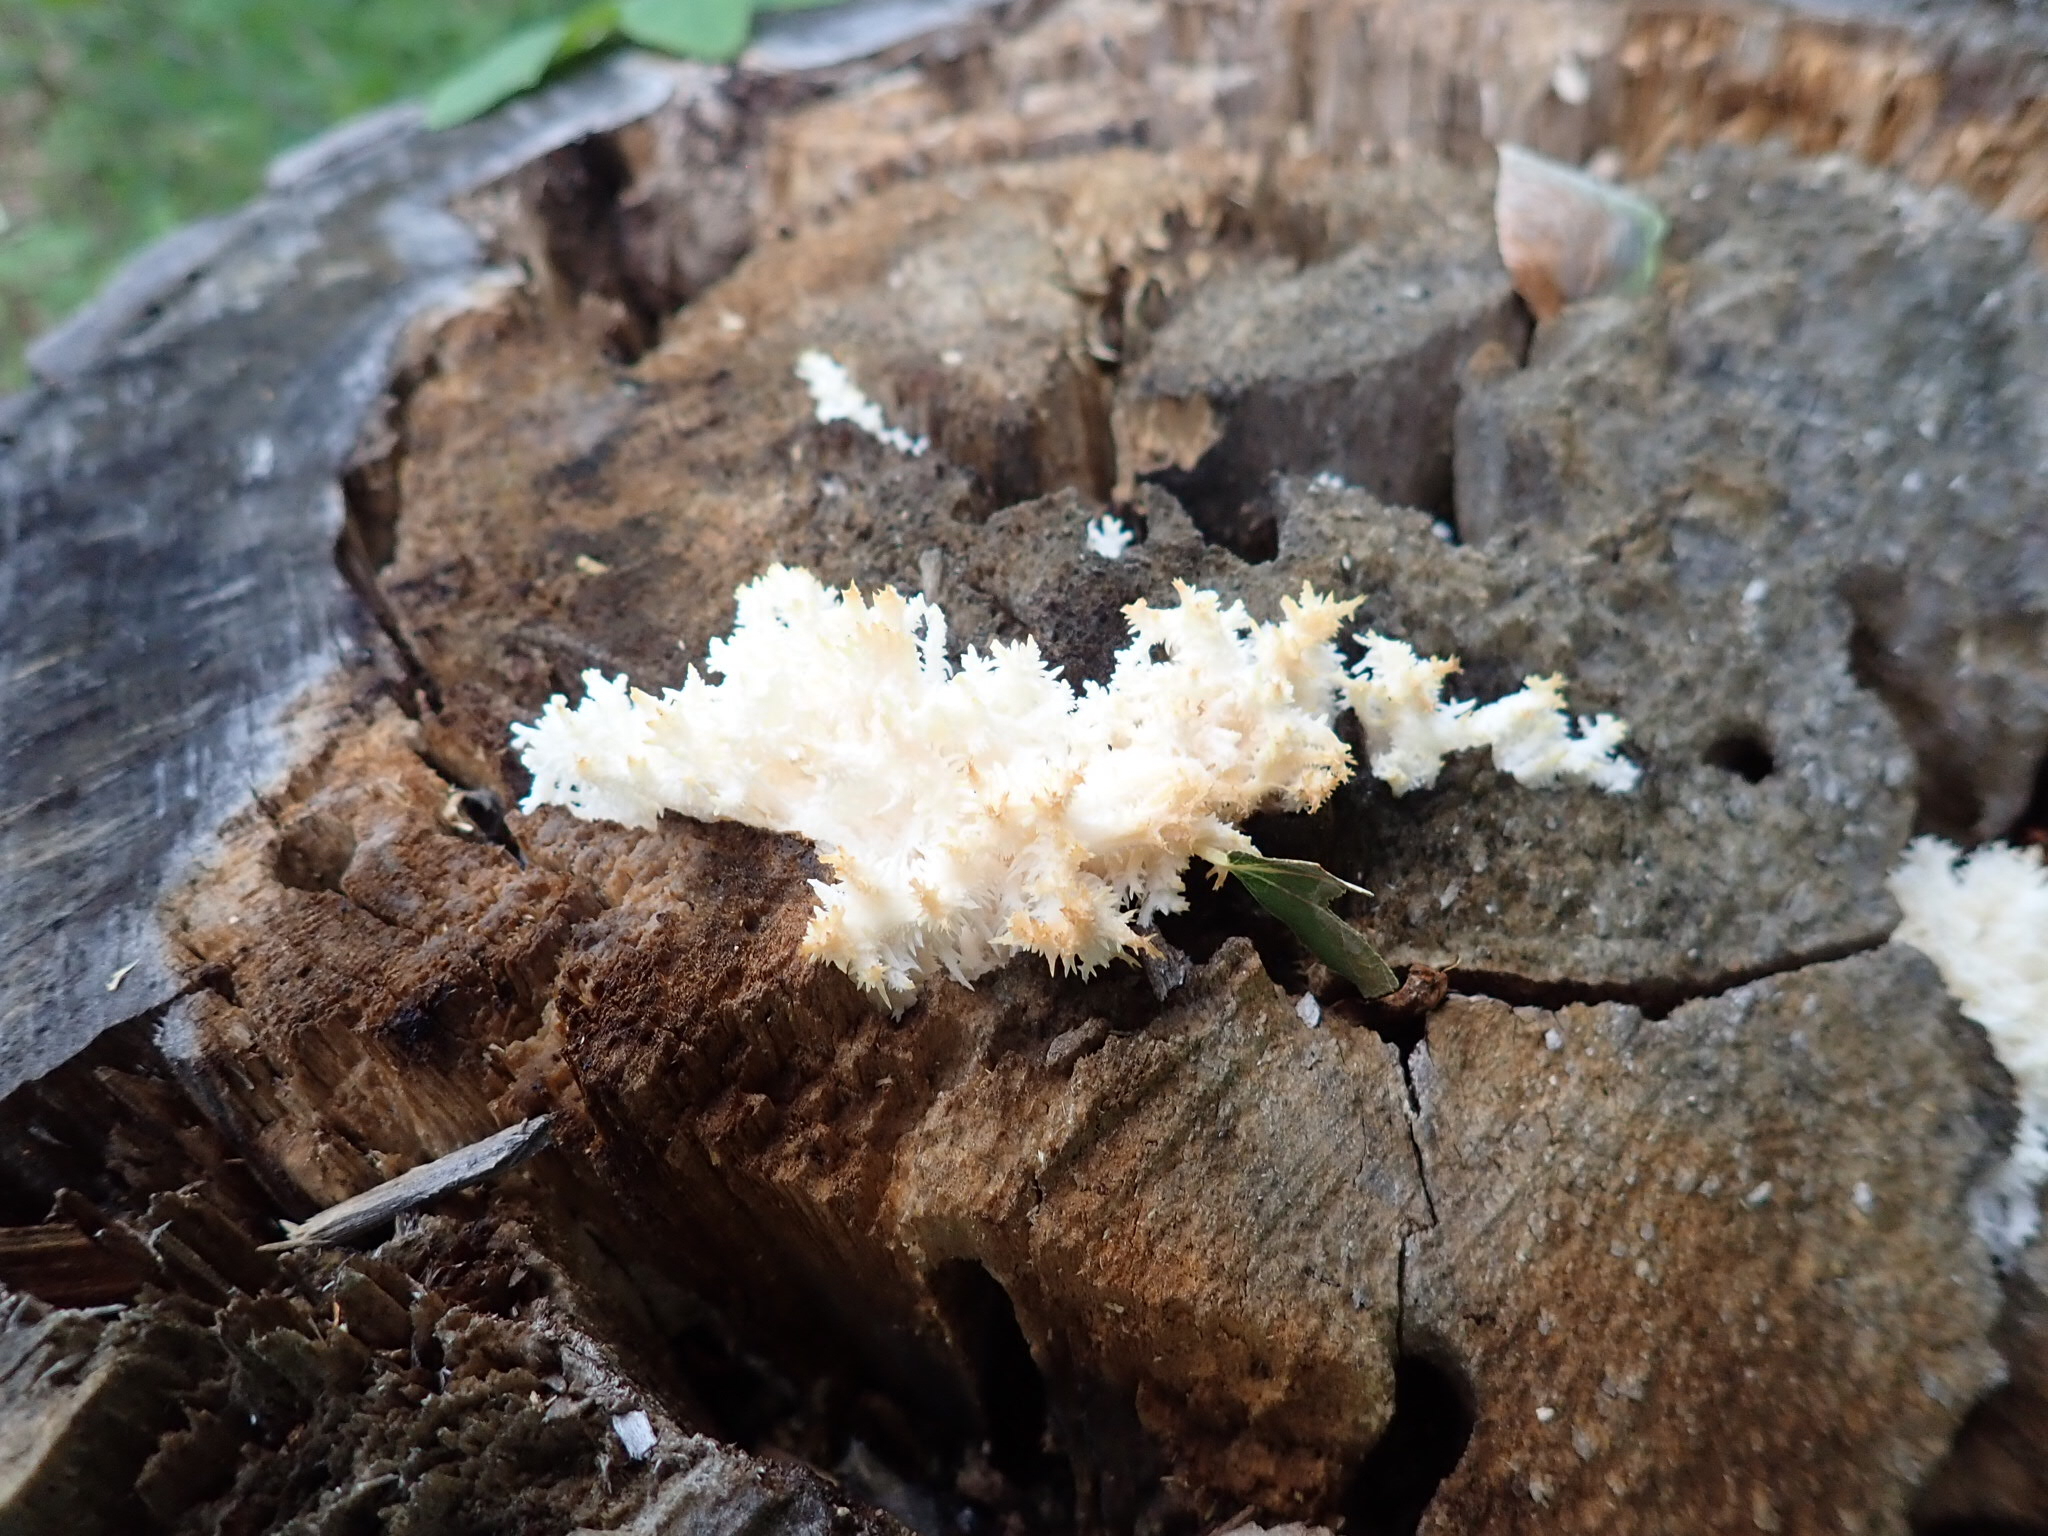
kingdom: Fungi
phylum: Basidiomycota
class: Agaricomycetes
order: Russulales
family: Hericiaceae
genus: Hericium
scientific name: Hericium coralloides
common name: Coral tooth
